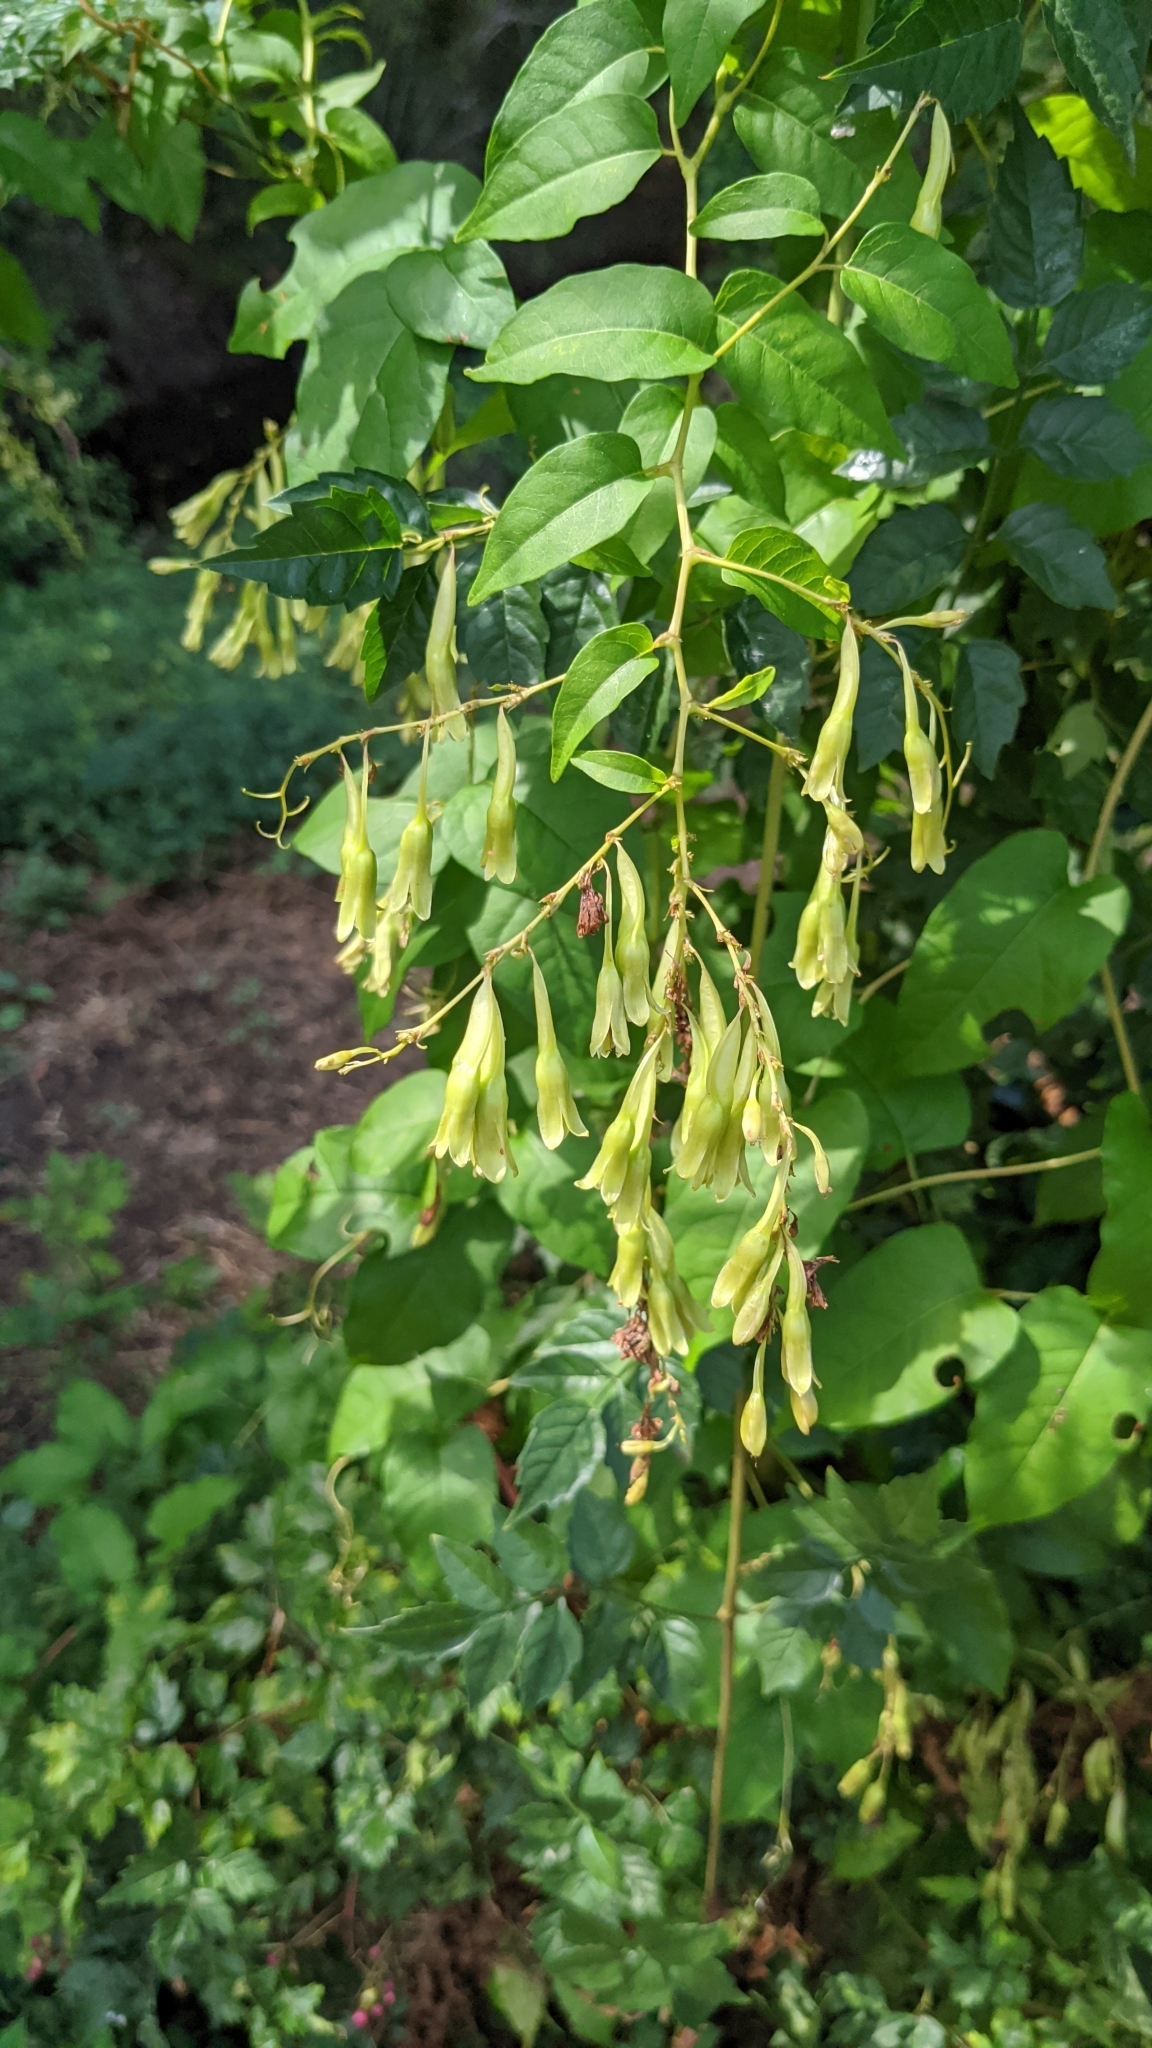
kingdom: Plantae
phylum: Tracheophyta
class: Magnoliopsida
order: Caryophyllales
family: Polygonaceae
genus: Brunnichia
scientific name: Brunnichia ovata
